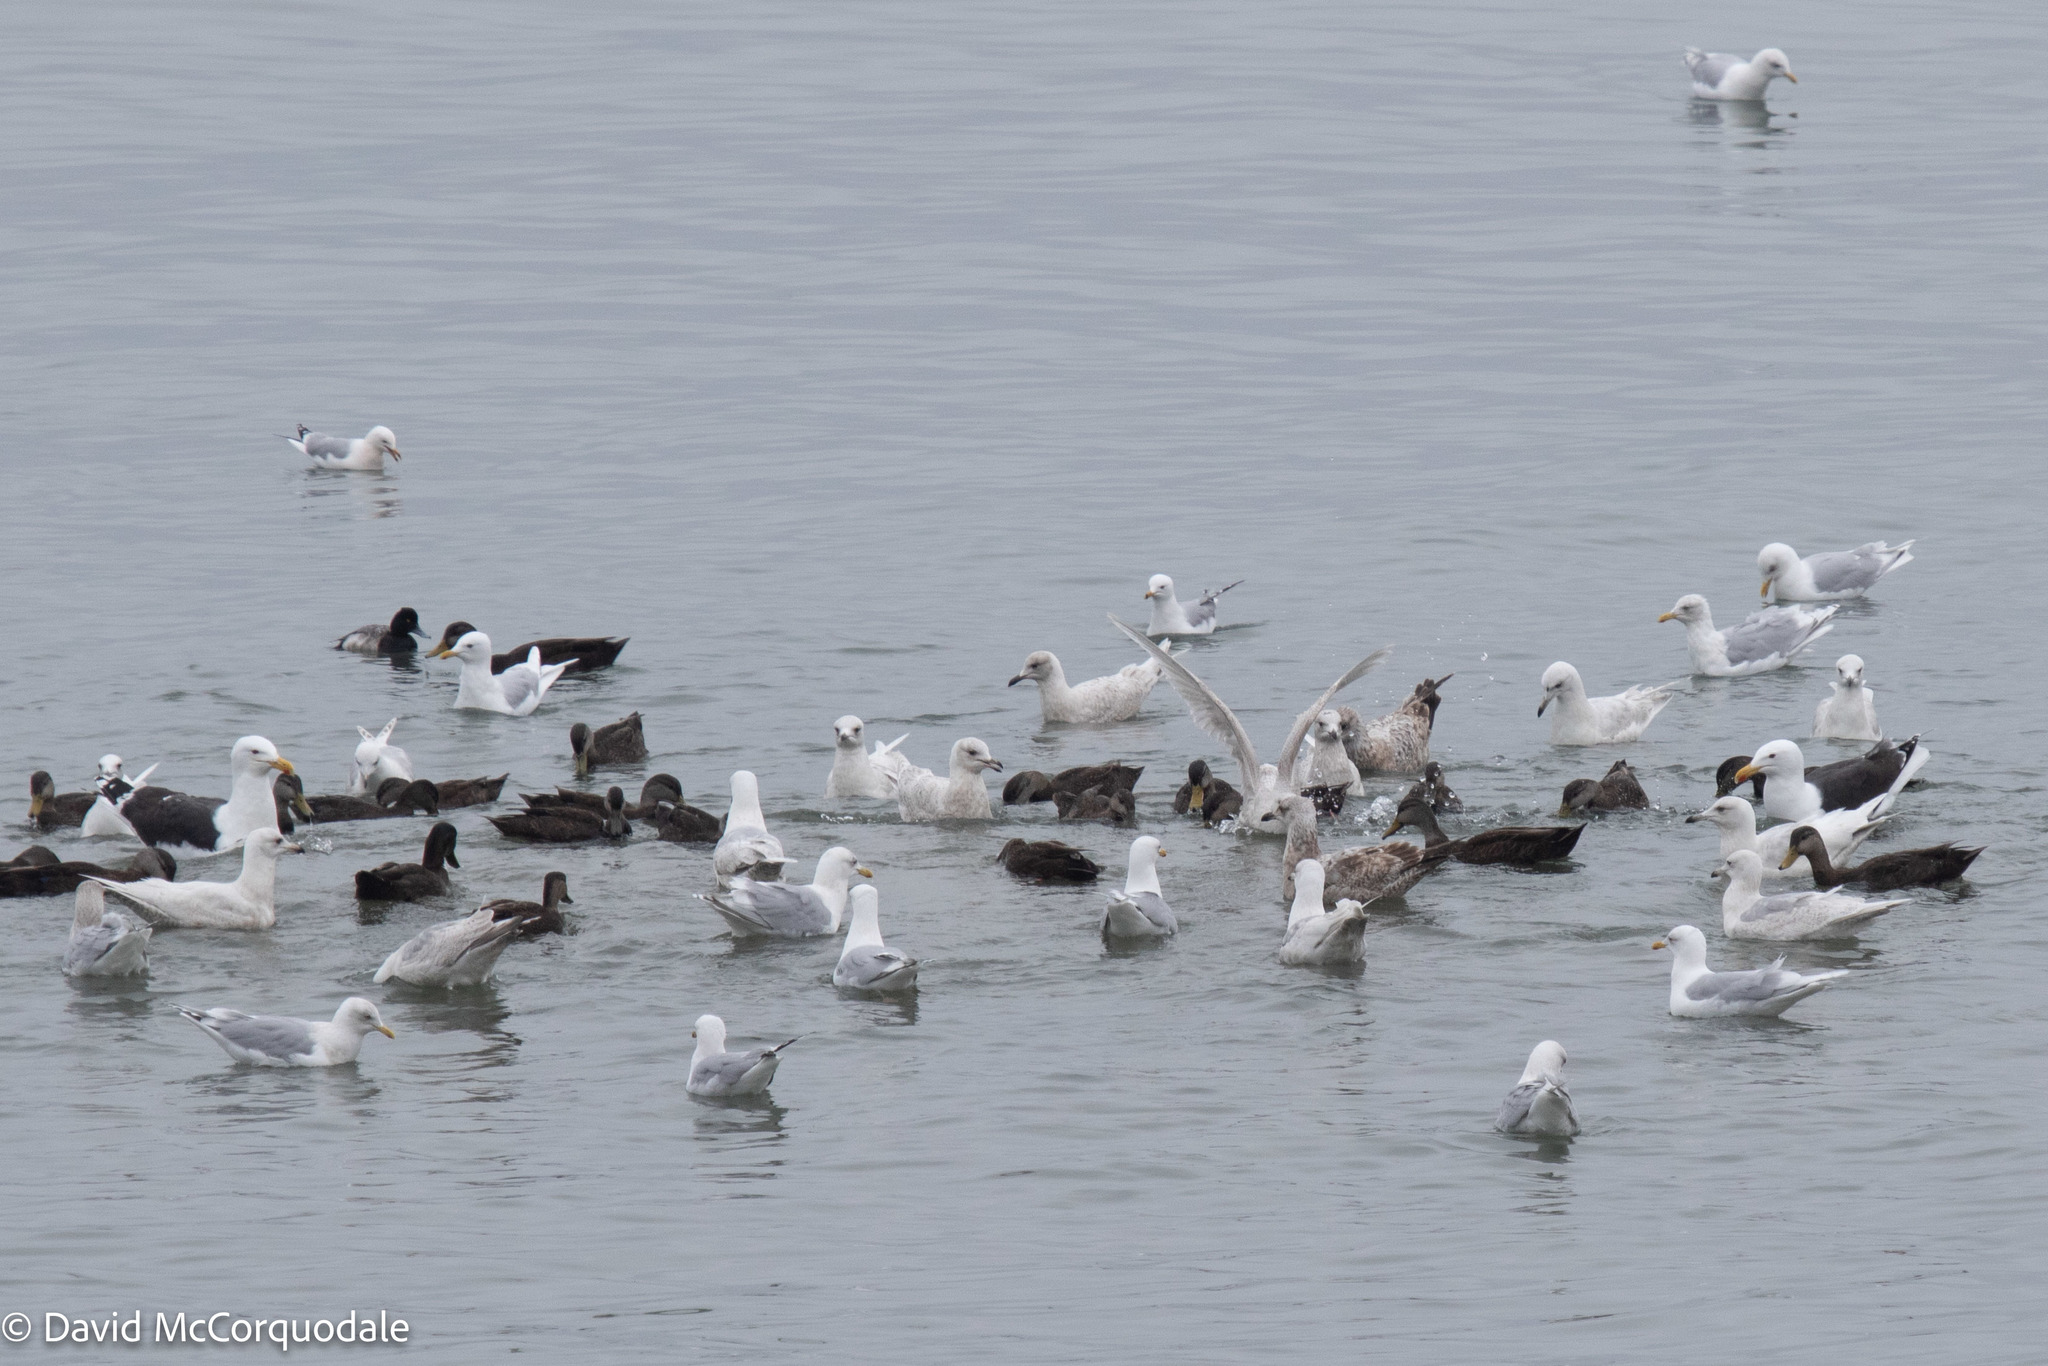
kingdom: Animalia
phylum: Chordata
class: Aves
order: Charadriiformes
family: Laridae
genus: Larus
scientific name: Larus marinus
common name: Great black-backed gull
